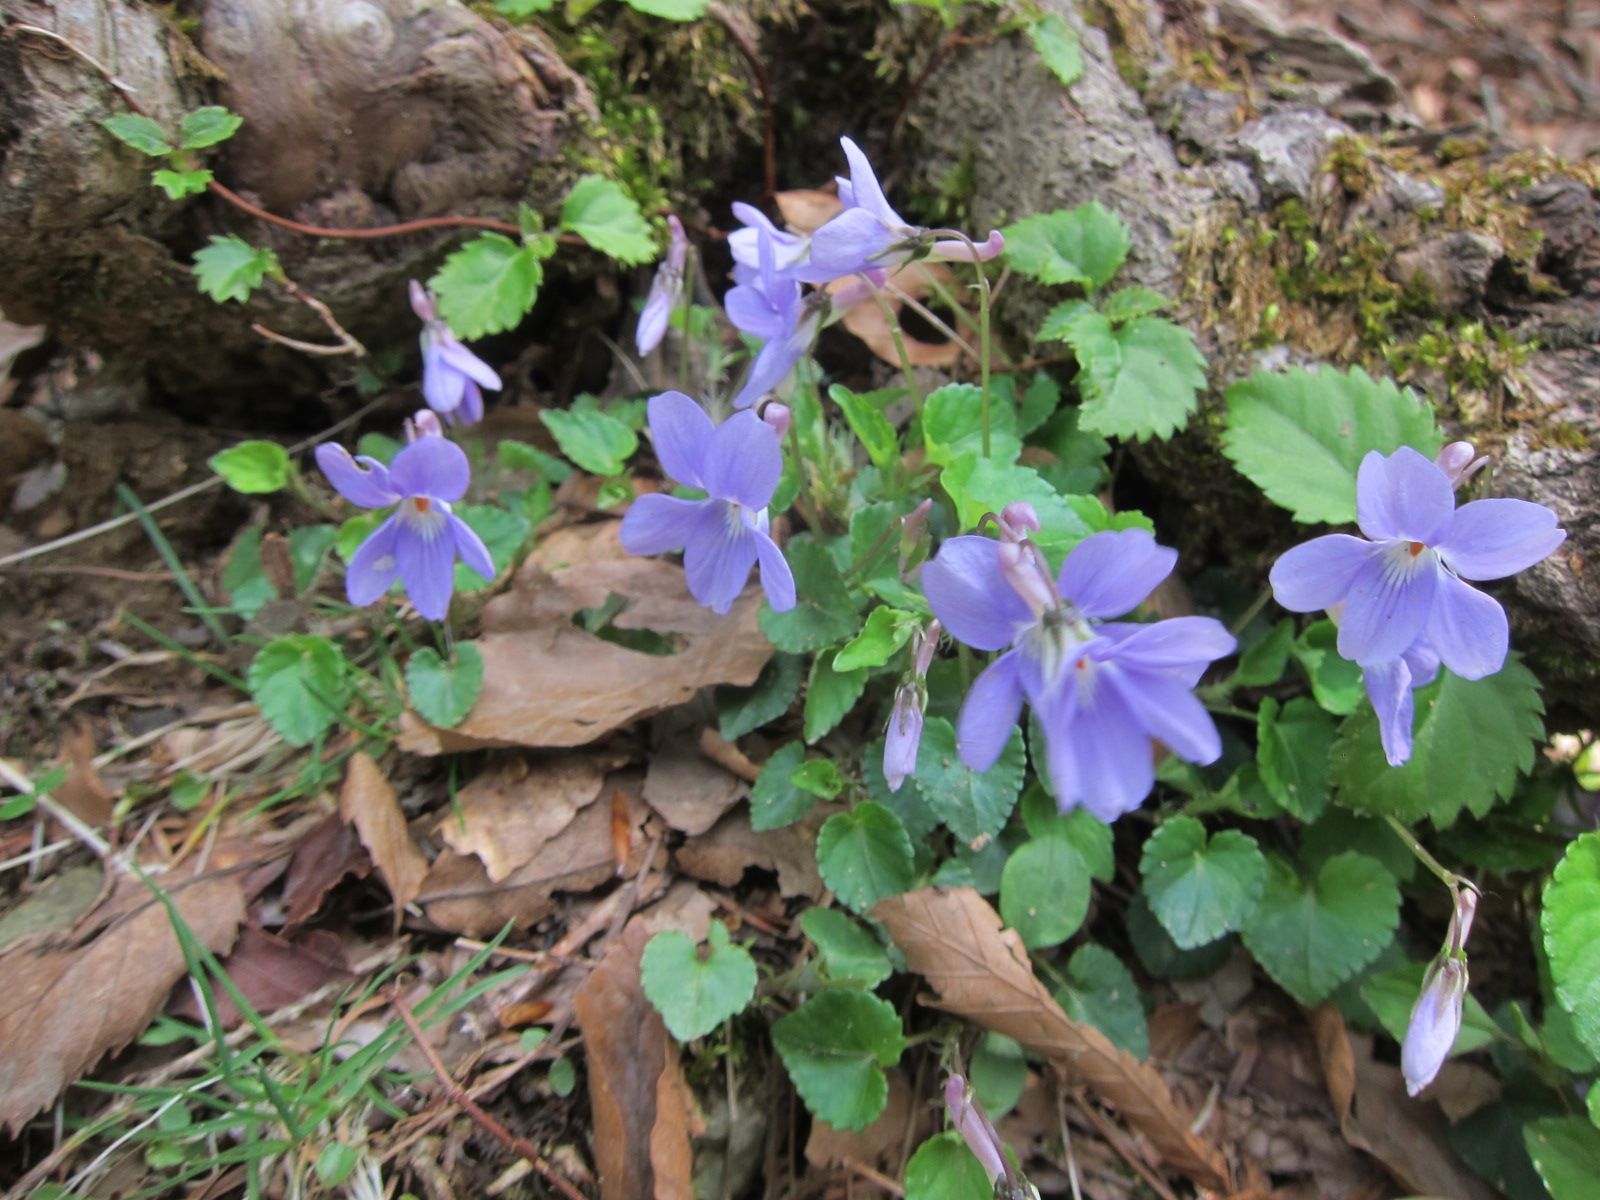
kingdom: Plantae
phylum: Tracheophyta
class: Magnoliopsida
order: Malpighiales
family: Violaceae
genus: Viola
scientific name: Viola grypoceras
